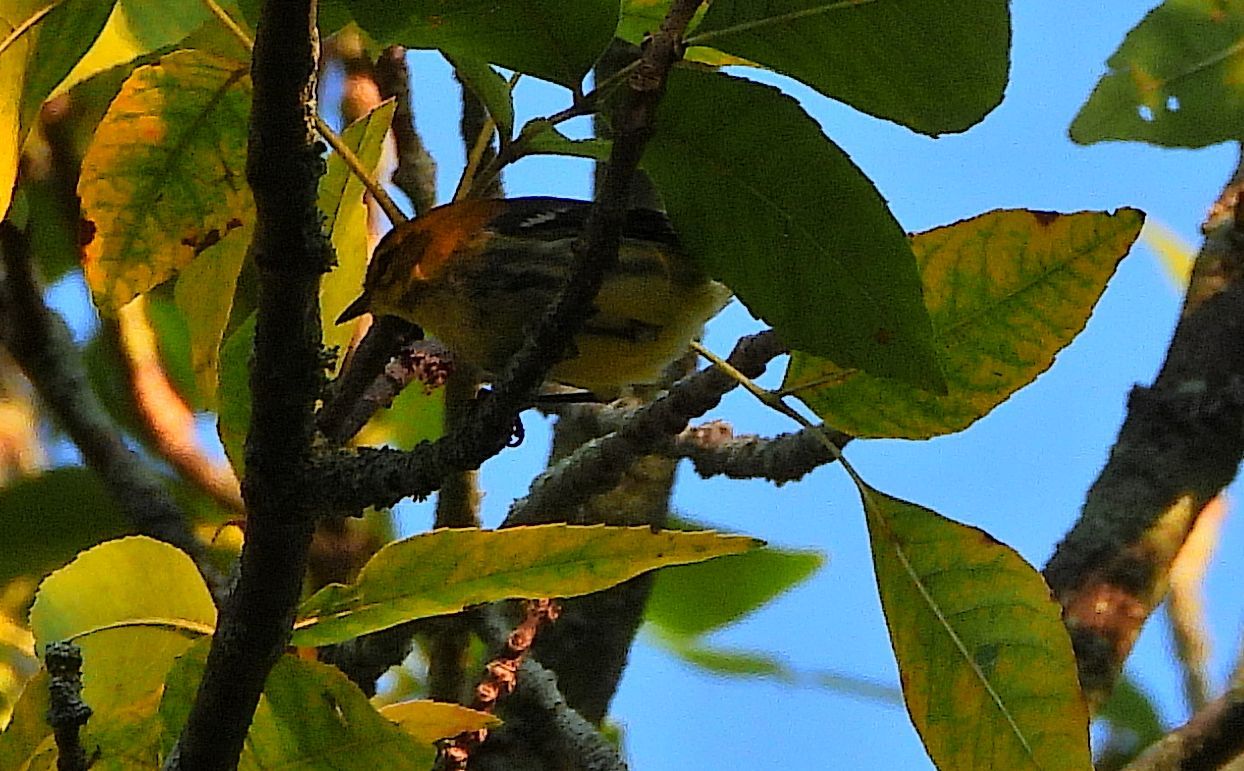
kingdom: Animalia
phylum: Chordata
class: Aves
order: Passeriformes
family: Parulidae
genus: Setophaga
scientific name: Setophaga magnolia
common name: Magnolia warbler
